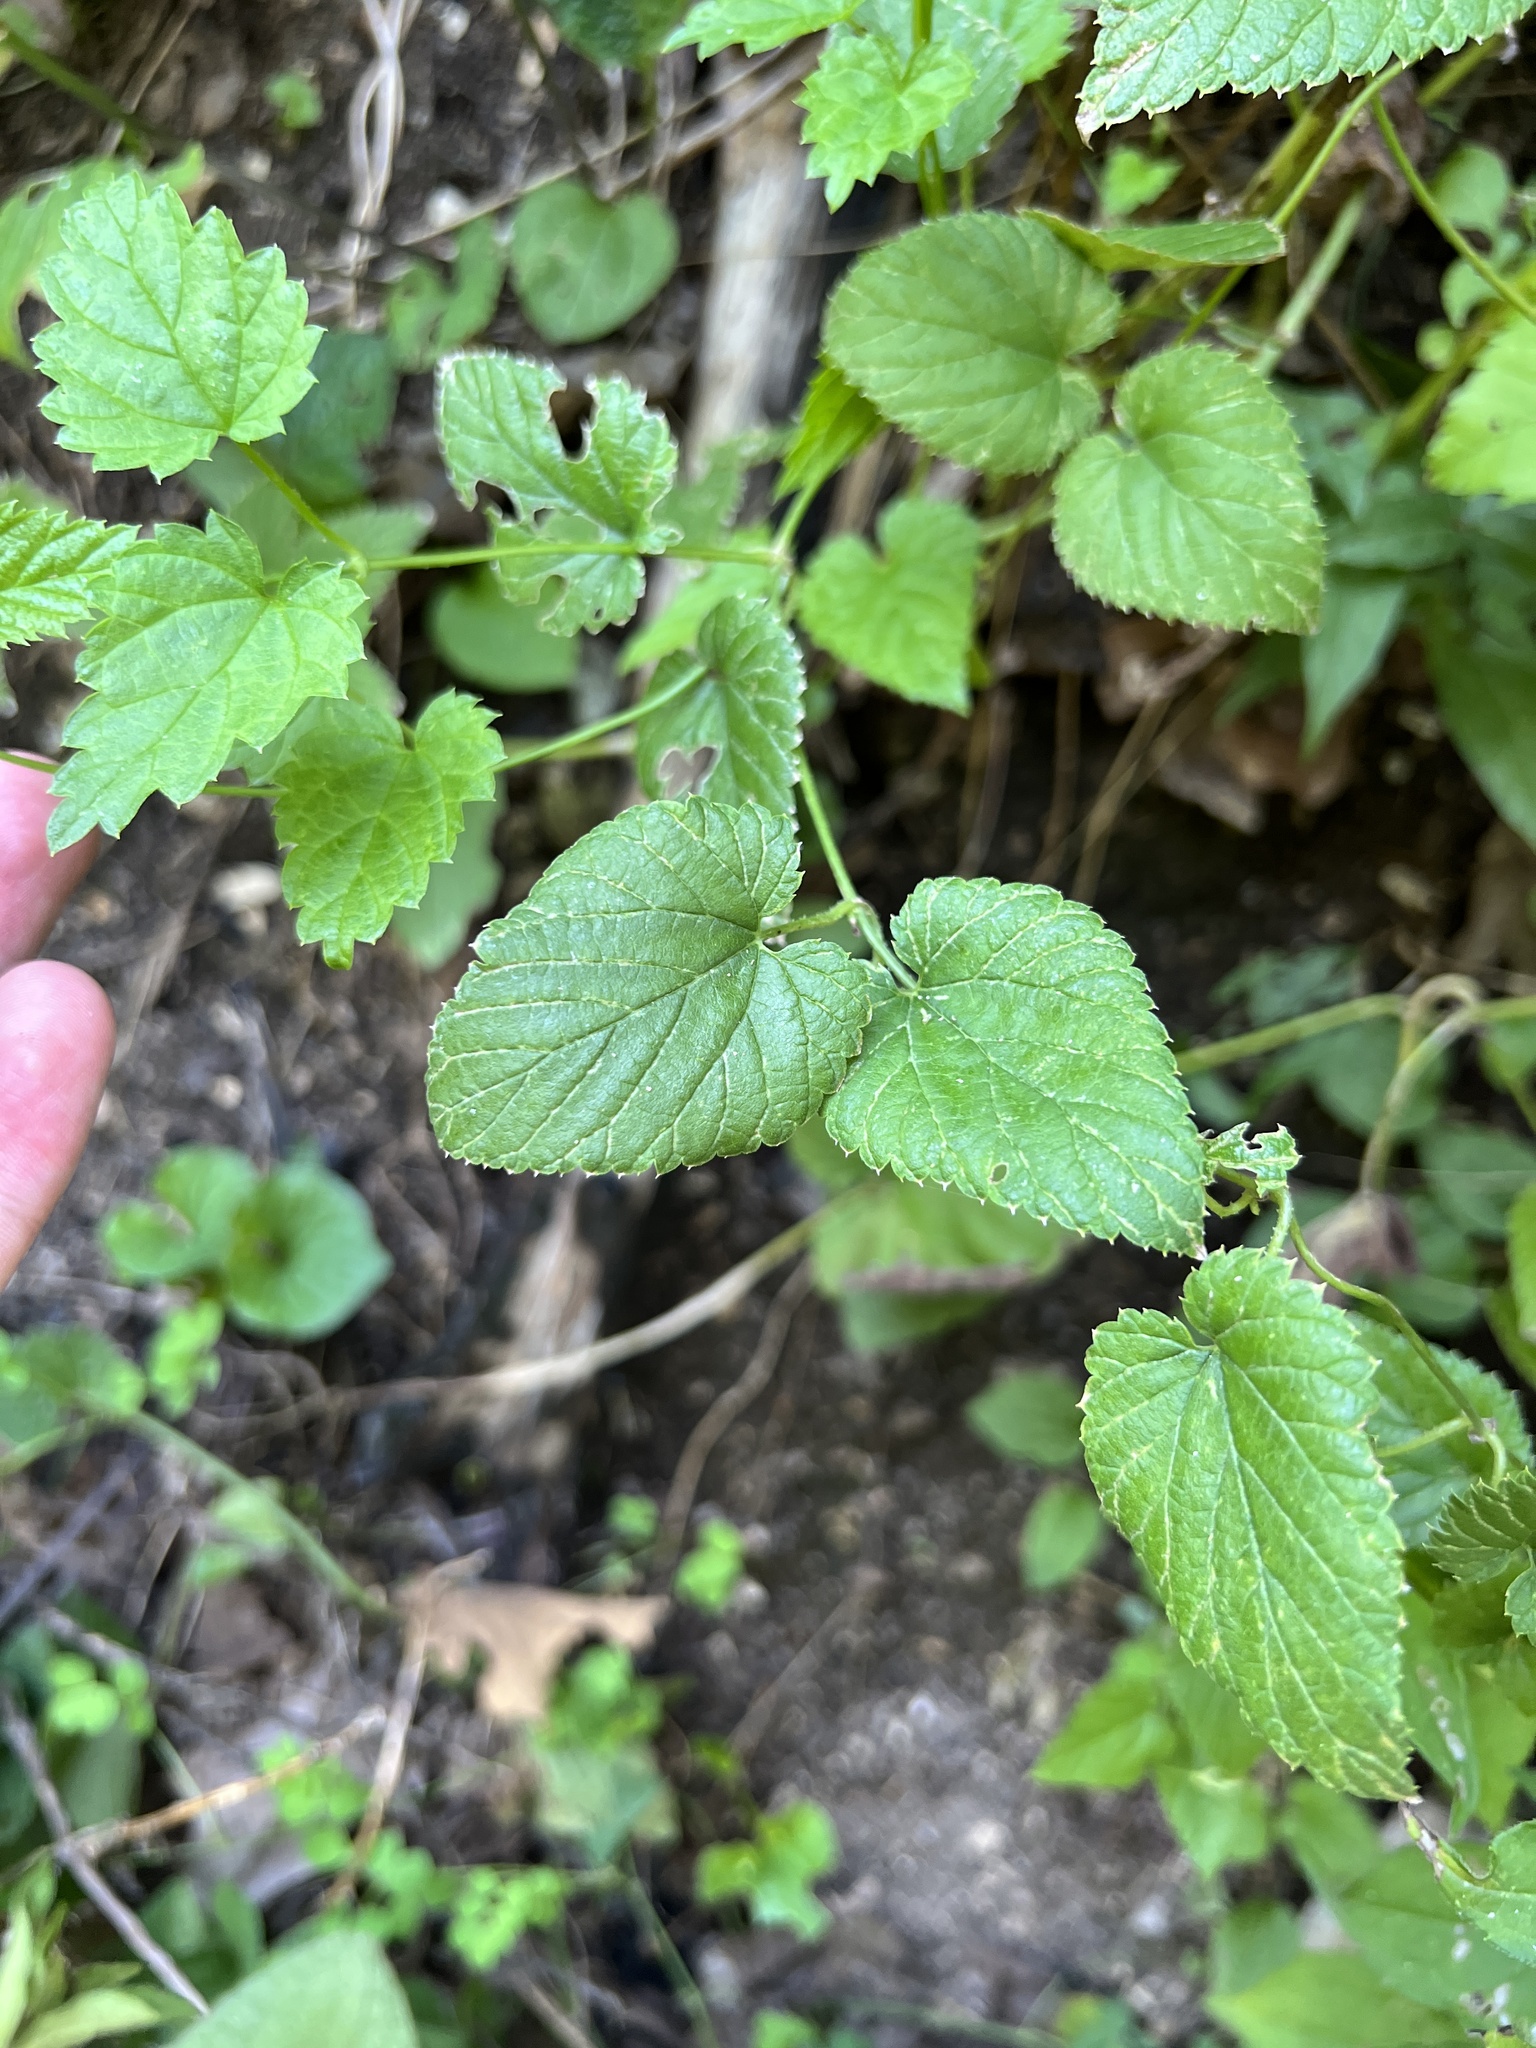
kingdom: Plantae
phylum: Tracheophyta
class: Magnoliopsida
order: Rosales
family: Cannabaceae
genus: Humulus
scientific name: Humulus lupulus
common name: Hop
